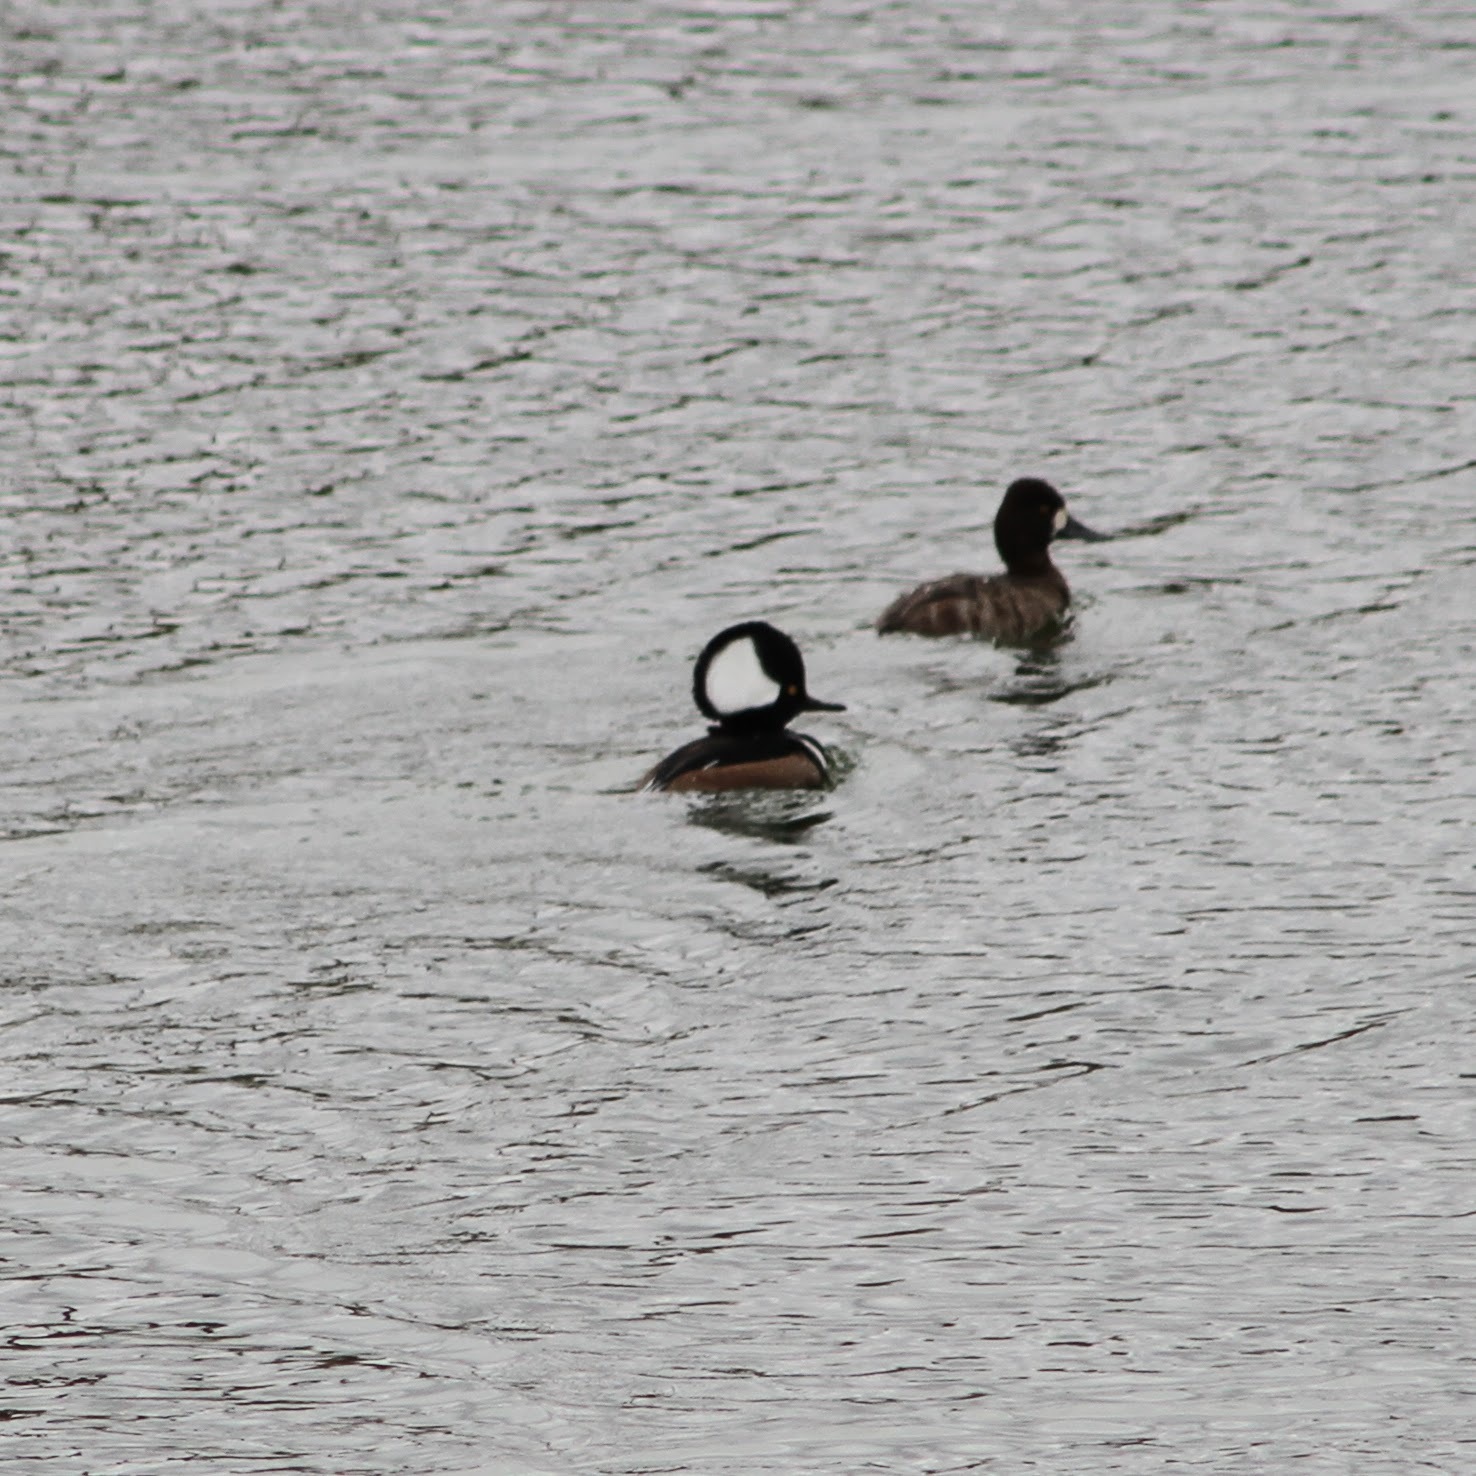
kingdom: Animalia
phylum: Chordata
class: Aves
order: Anseriformes
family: Anatidae
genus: Lophodytes
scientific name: Lophodytes cucullatus
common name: Hooded merganser
